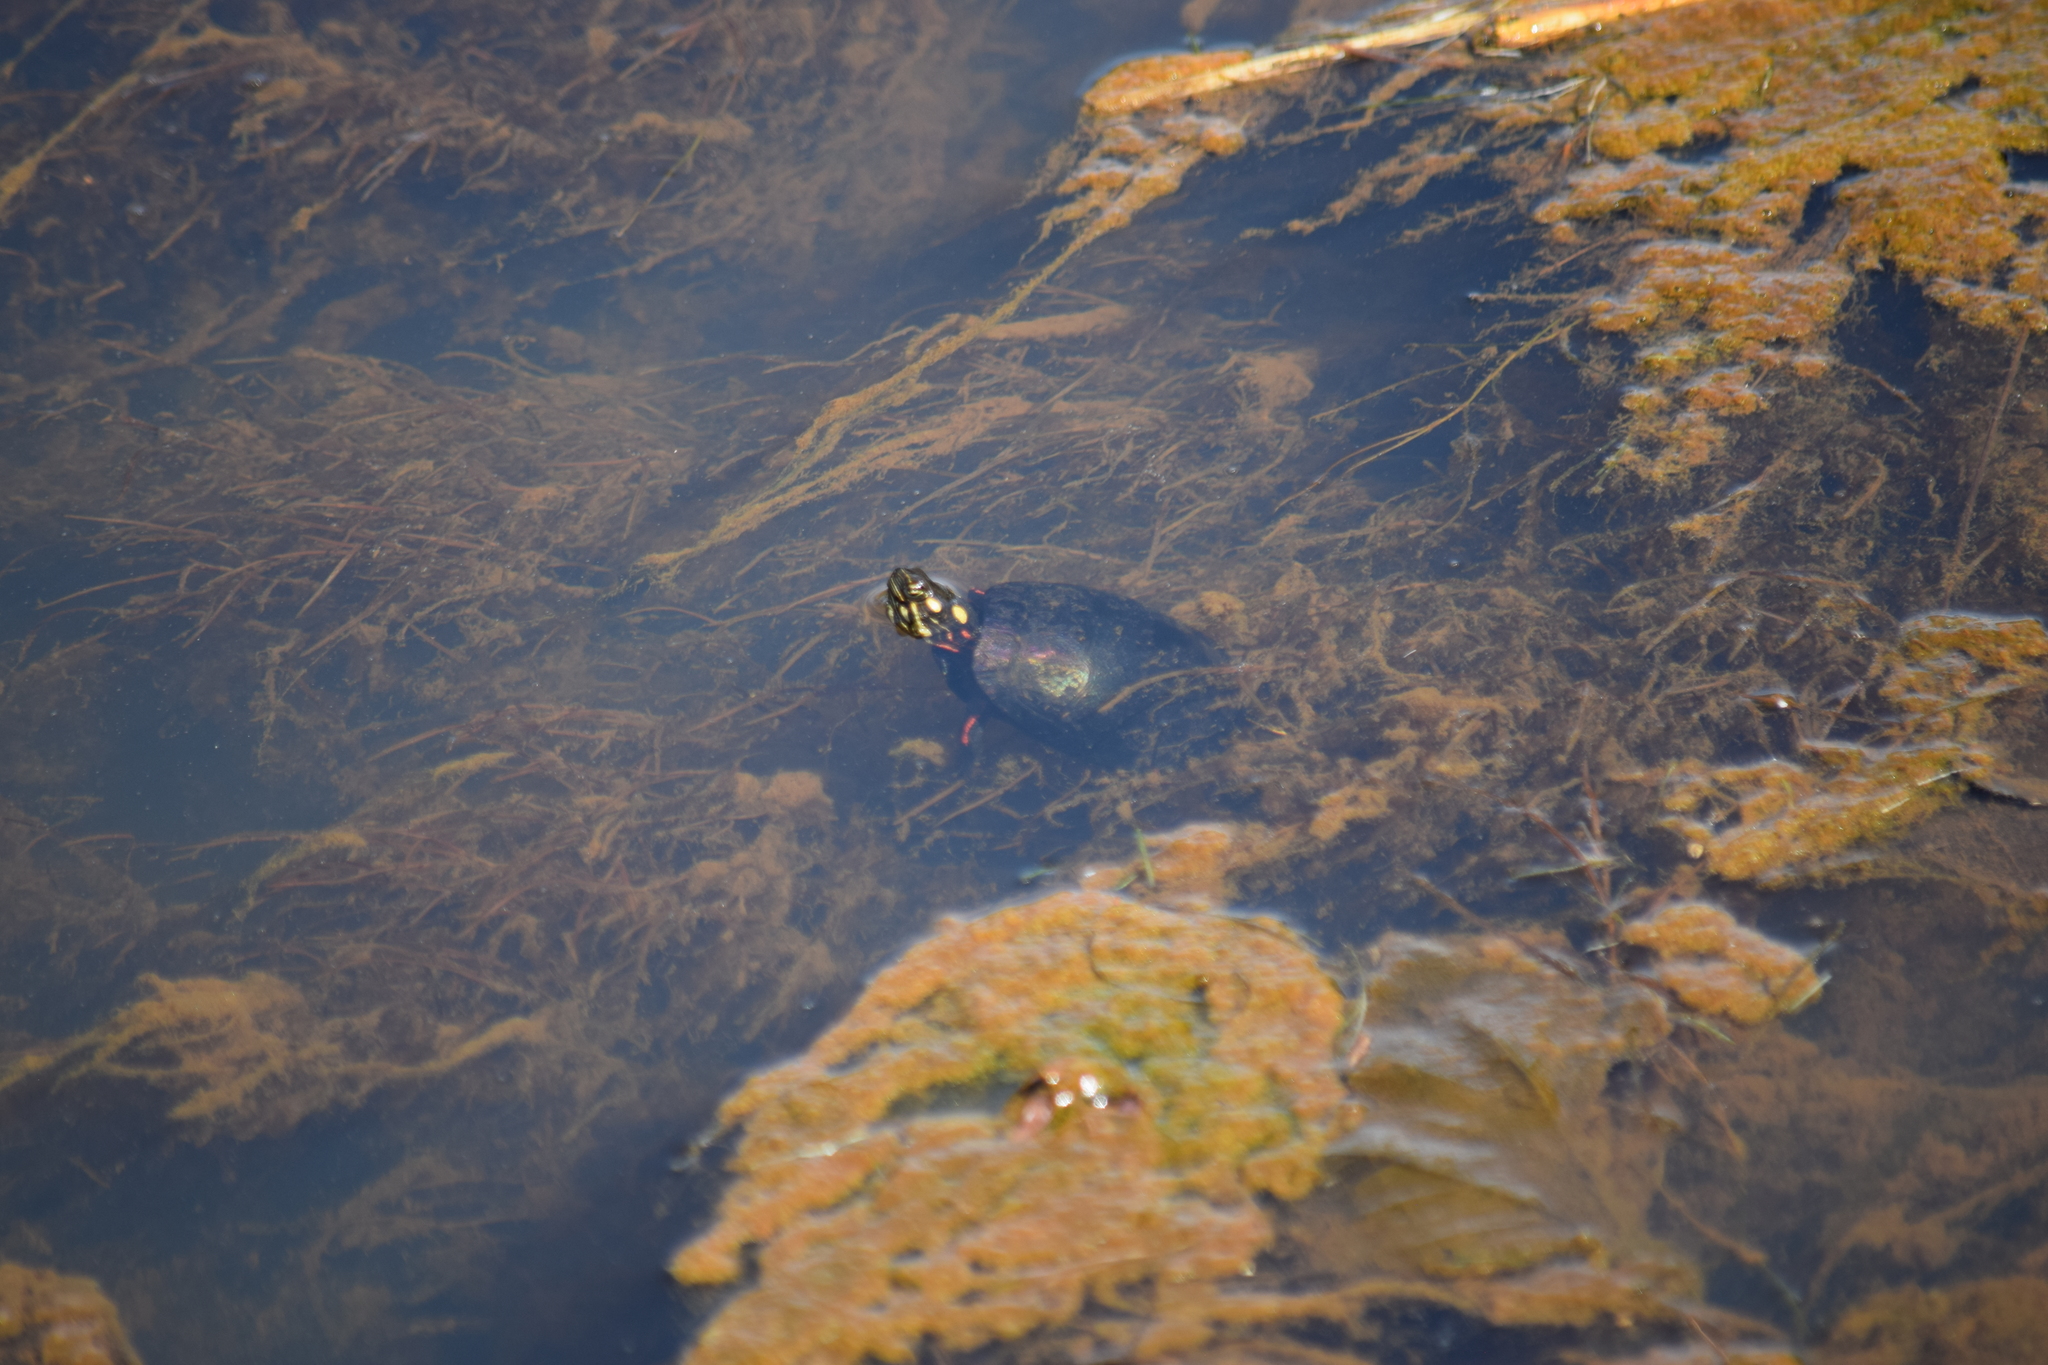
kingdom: Animalia
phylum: Chordata
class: Testudines
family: Emydidae
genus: Chrysemys
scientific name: Chrysemys picta
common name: Painted turtle
